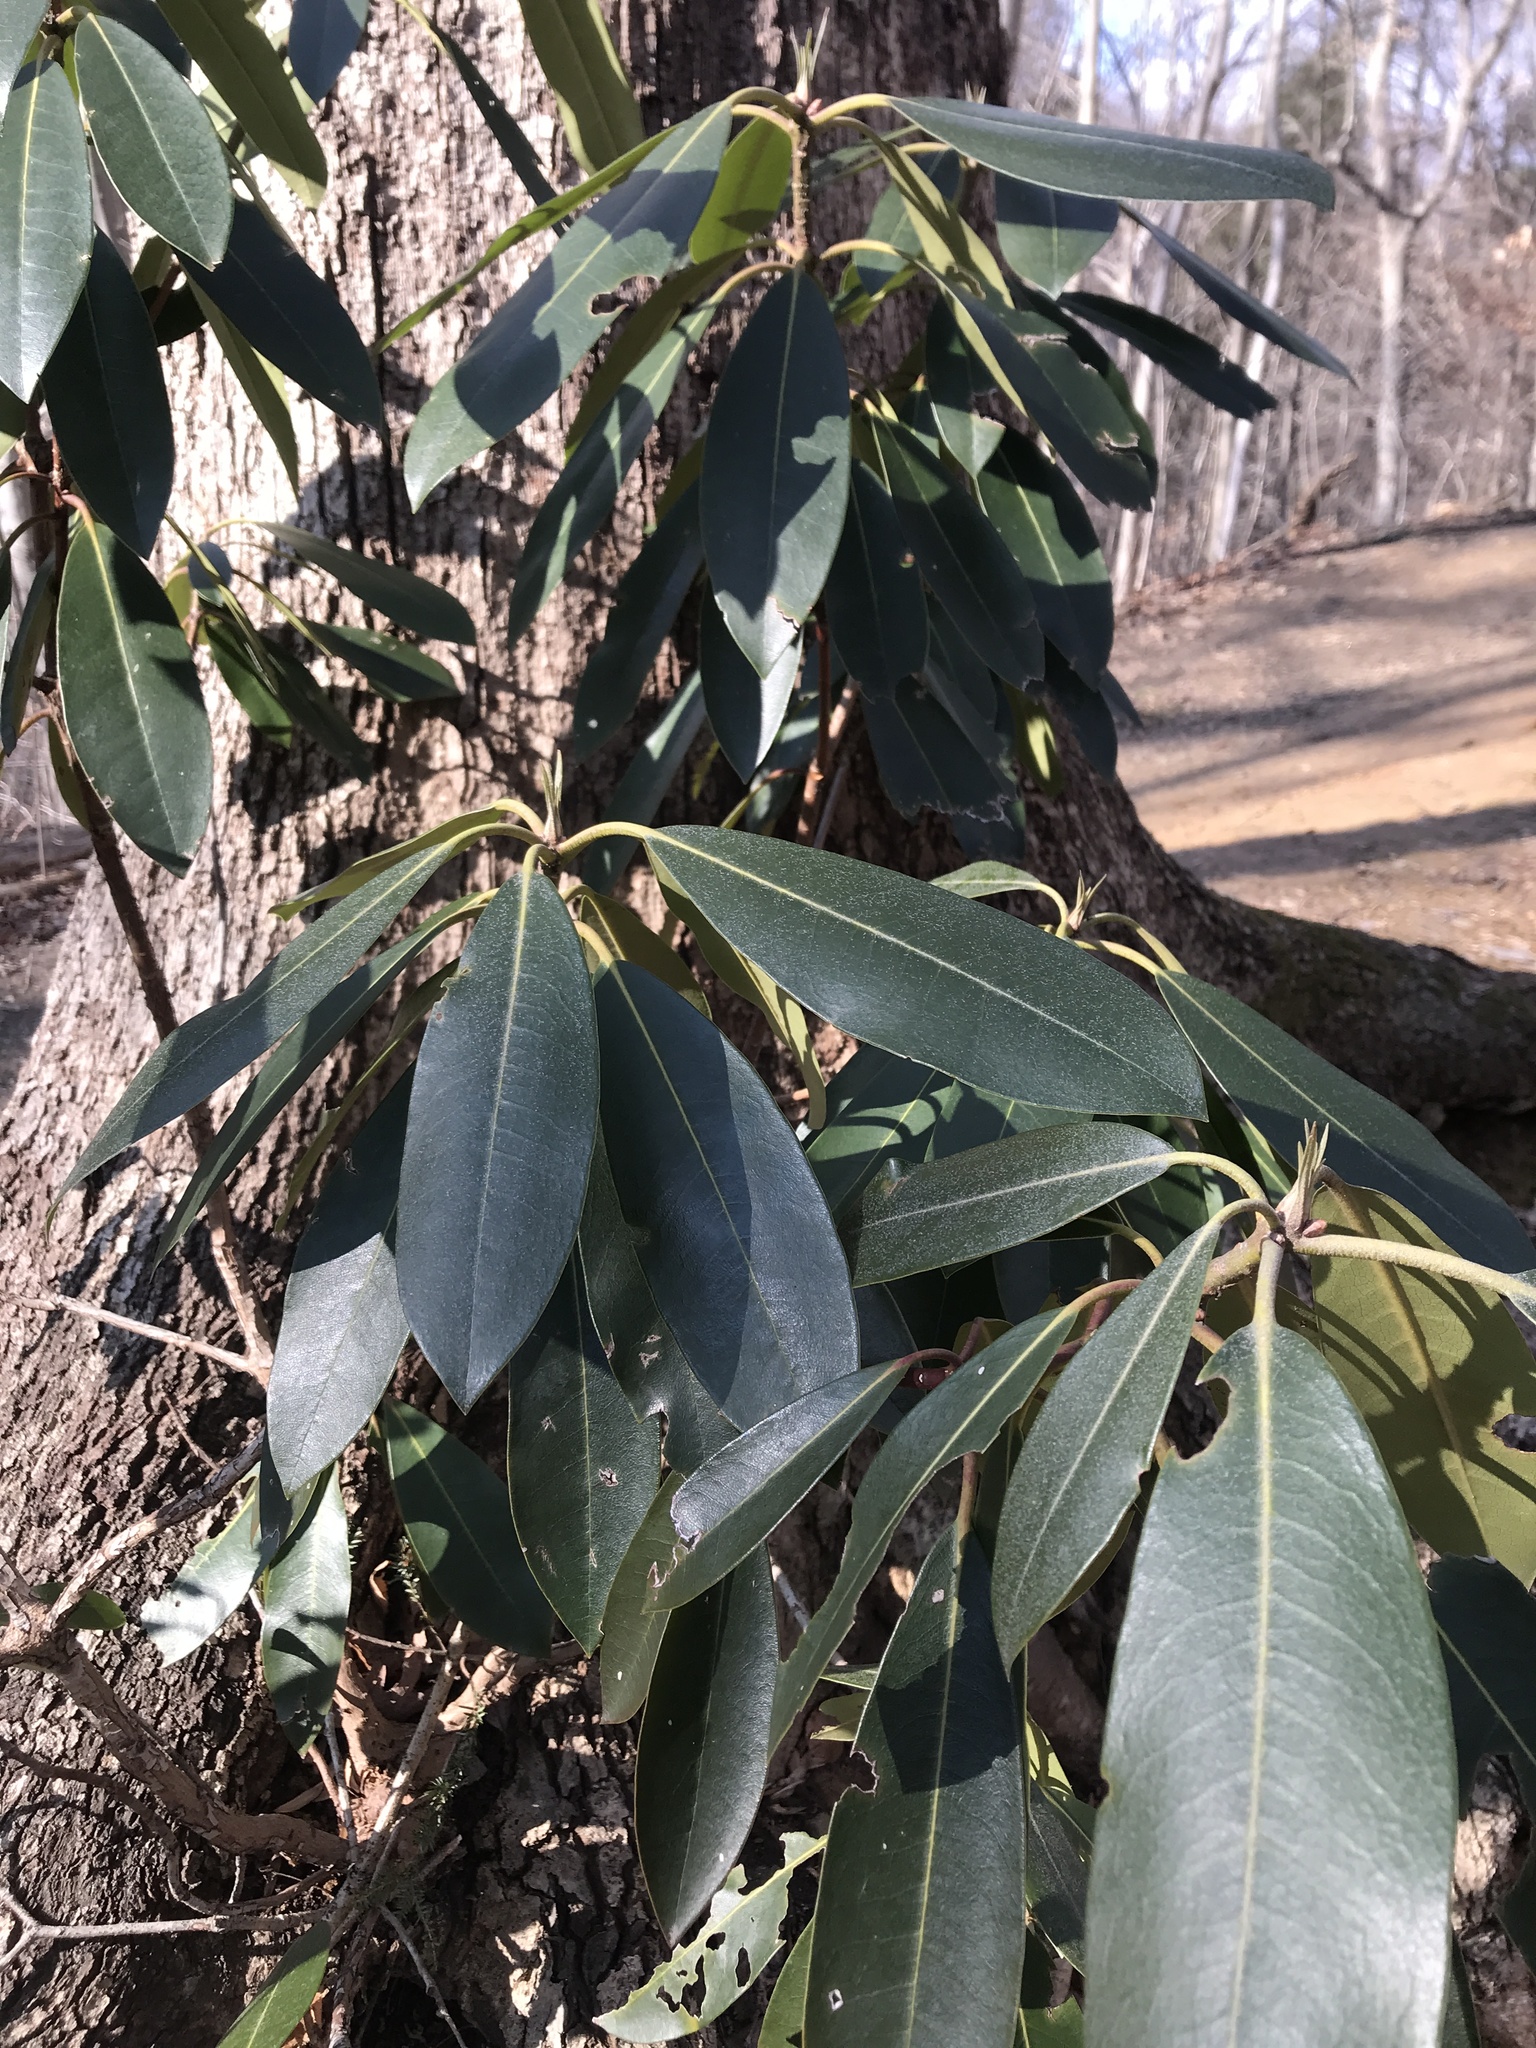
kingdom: Plantae
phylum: Tracheophyta
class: Magnoliopsida
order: Ericales
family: Ericaceae
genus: Rhododendron
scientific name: Rhododendron maximum
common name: Great rhododendron
